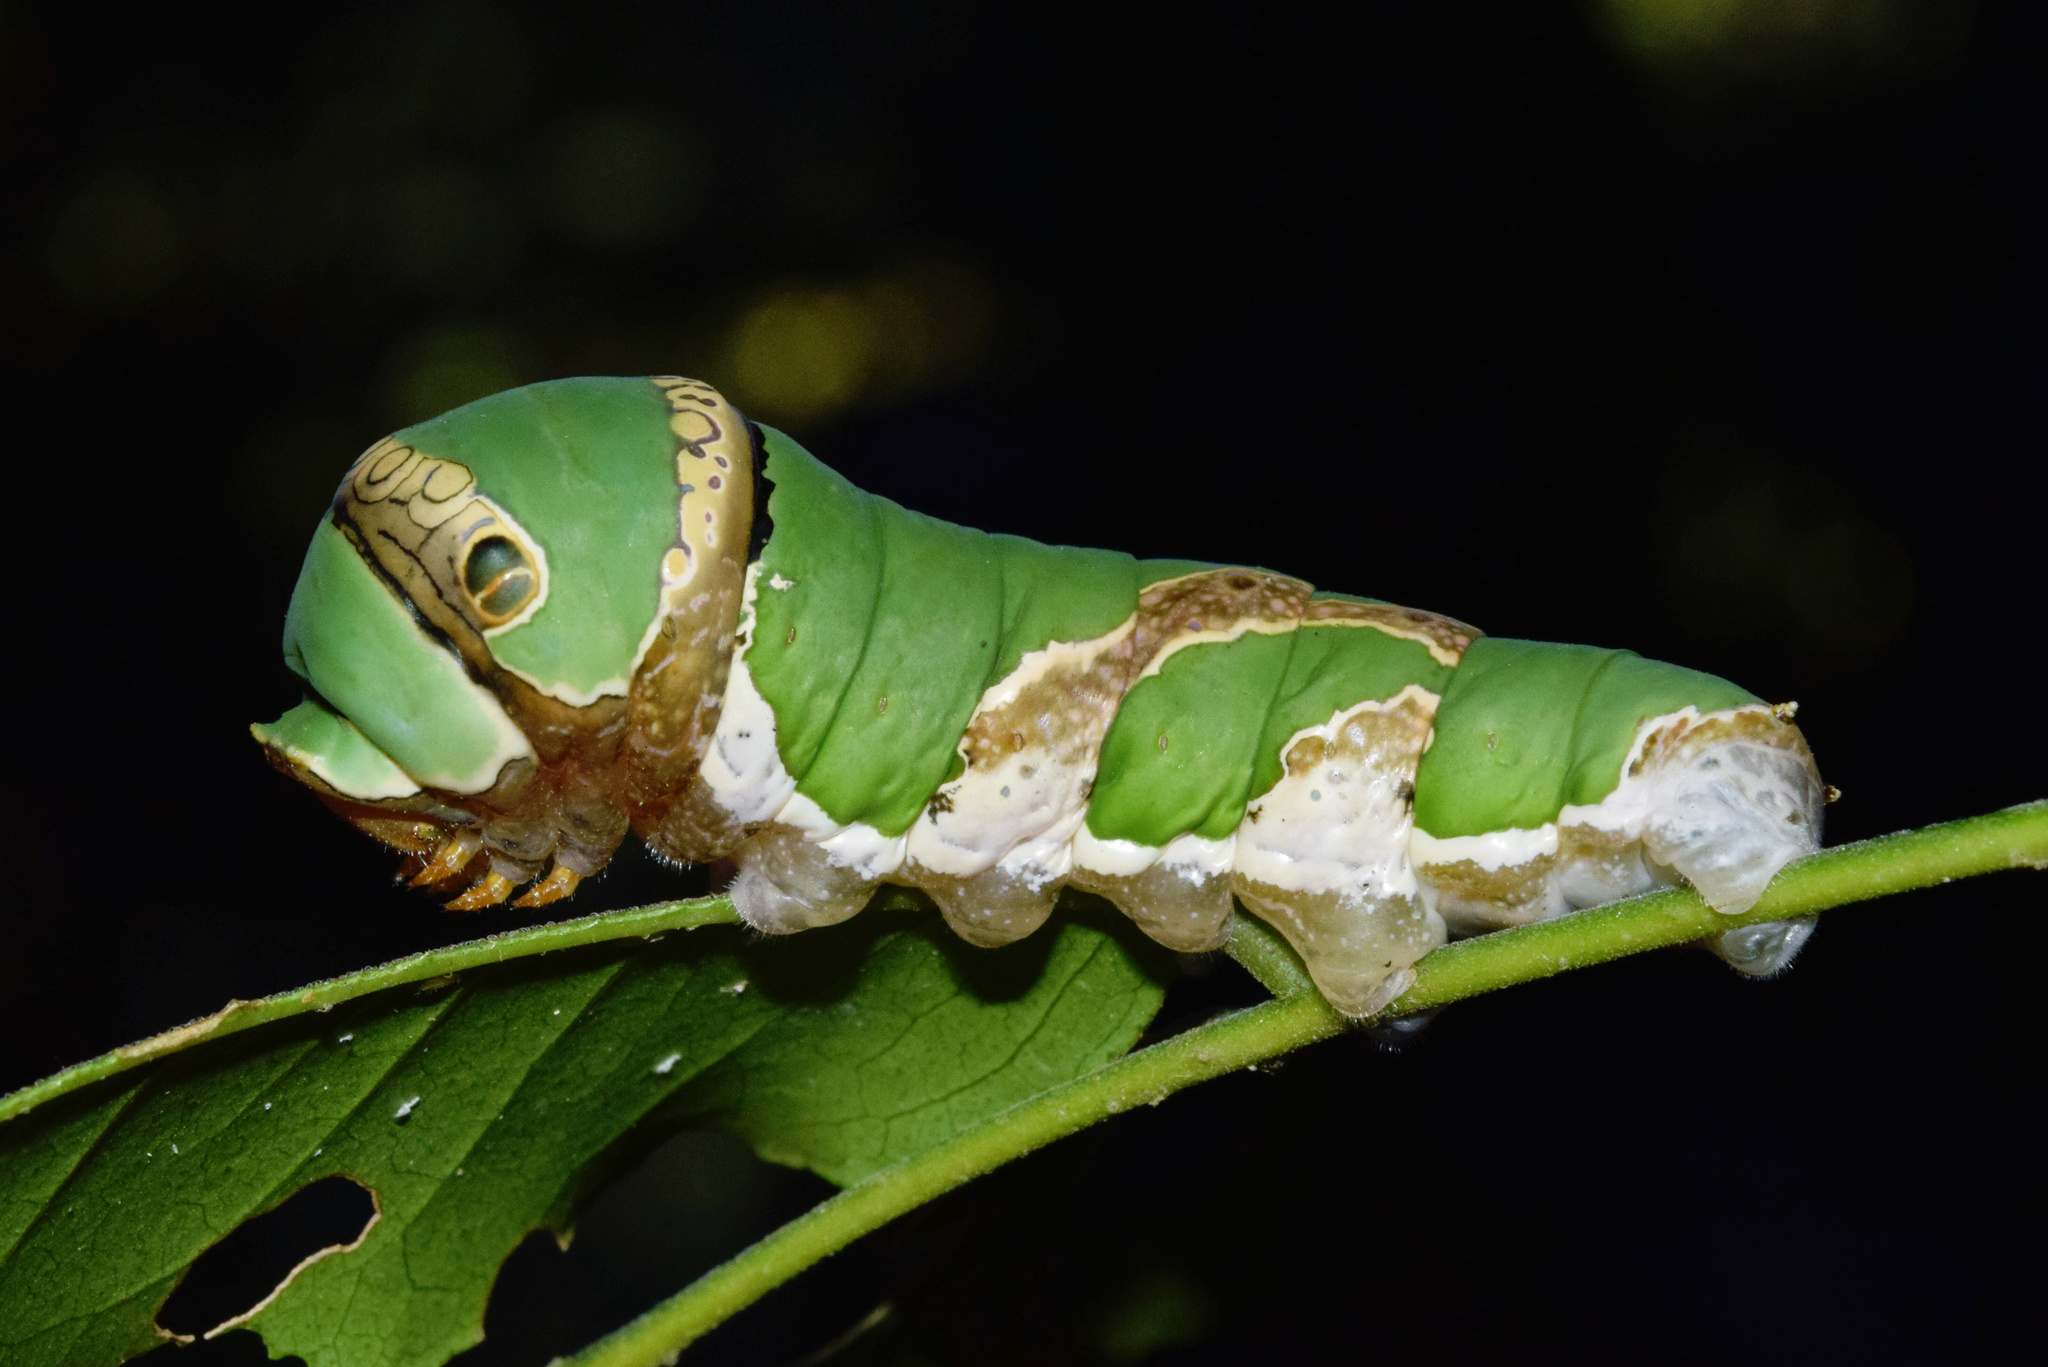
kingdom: Animalia
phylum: Arthropoda
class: Insecta
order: Lepidoptera
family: Papilionidae
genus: Papilio
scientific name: Papilio demodocus
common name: Christmas butterfly
